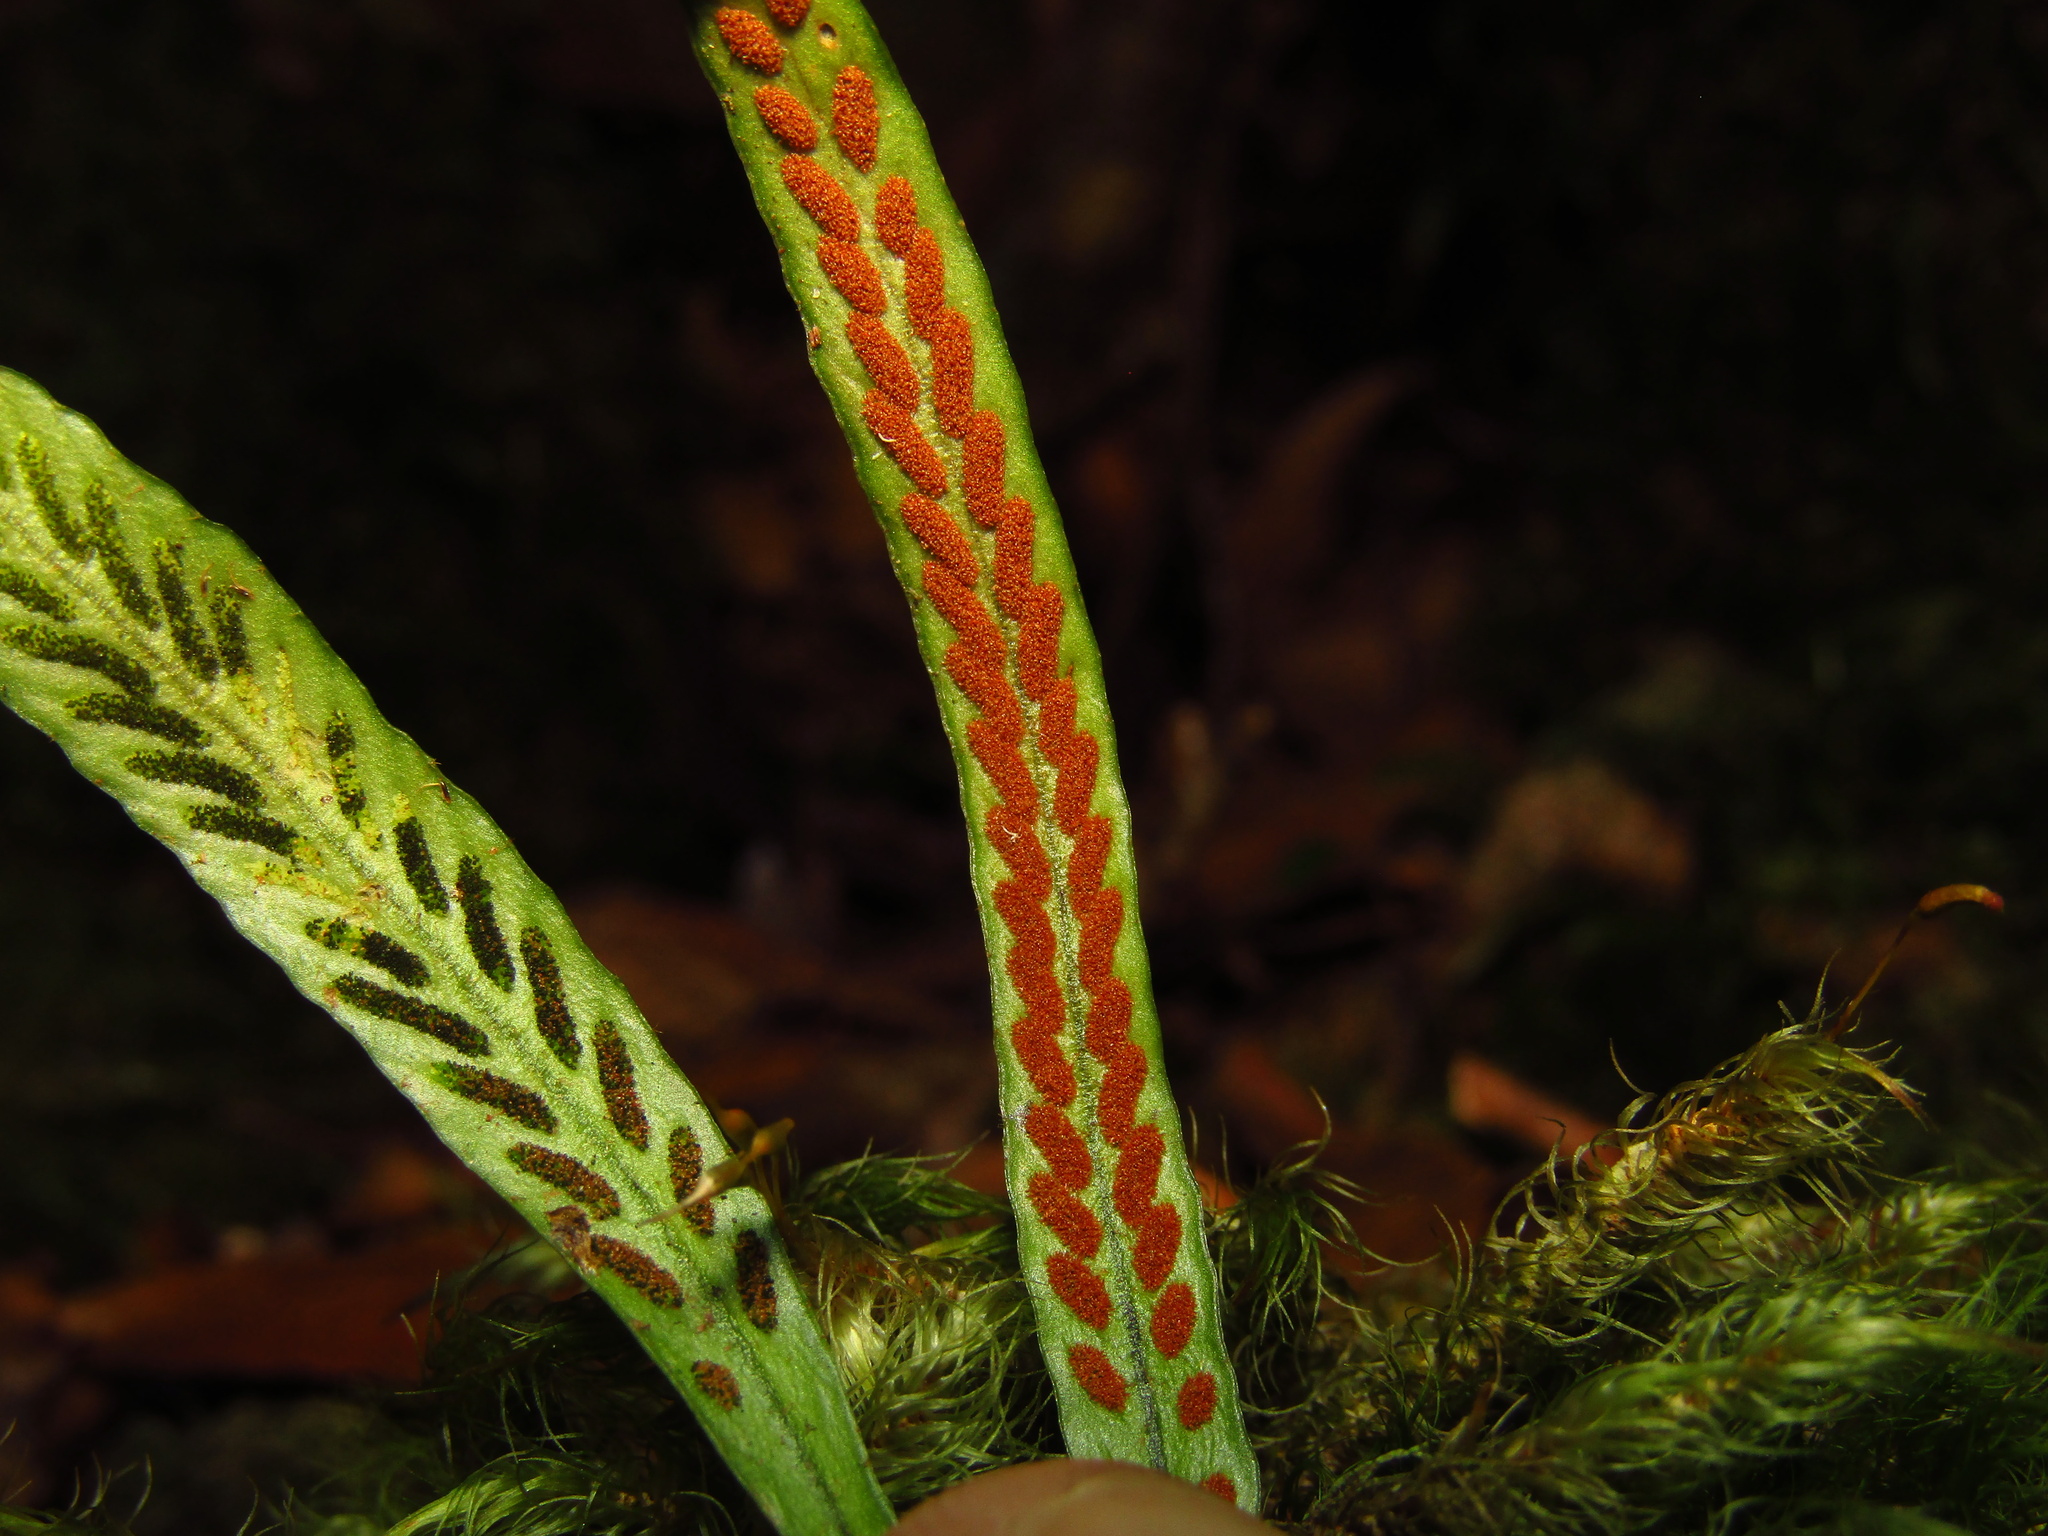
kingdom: Plantae
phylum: Tracheophyta
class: Polypodiopsida
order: Polypodiales
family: Polypodiaceae
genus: Notogrammitis
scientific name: Notogrammitis billardierei
